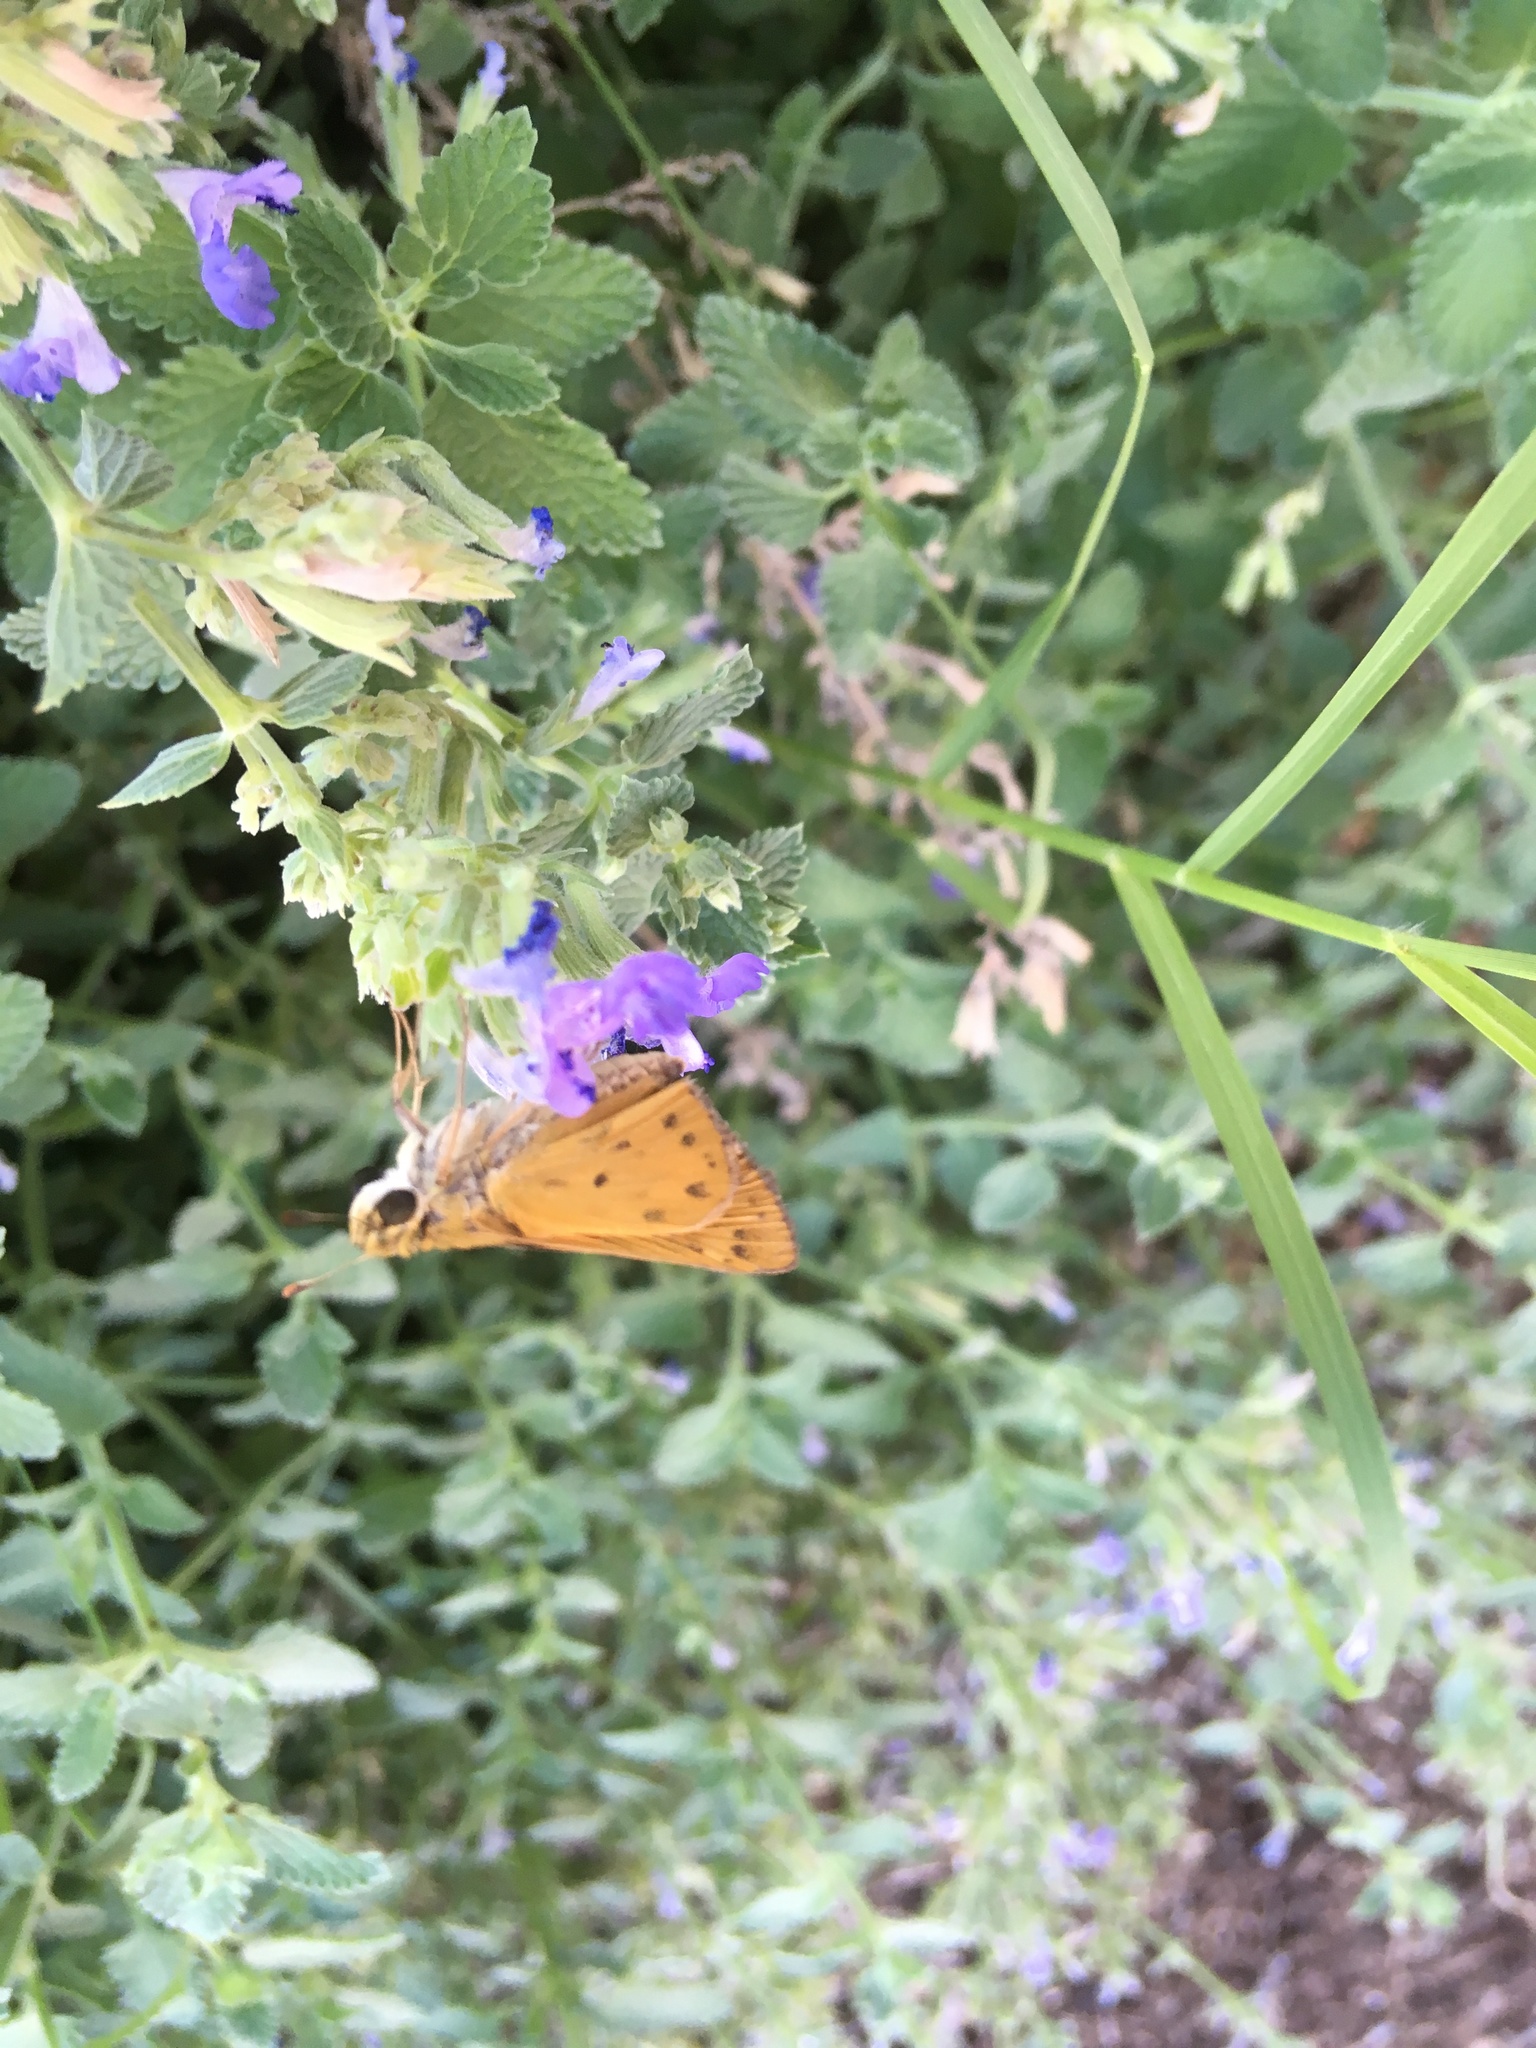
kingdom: Animalia
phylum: Arthropoda
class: Insecta
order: Lepidoptera
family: Hesperiidae
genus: Hylephila
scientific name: Hylephila phyleus
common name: Fiery skipper
